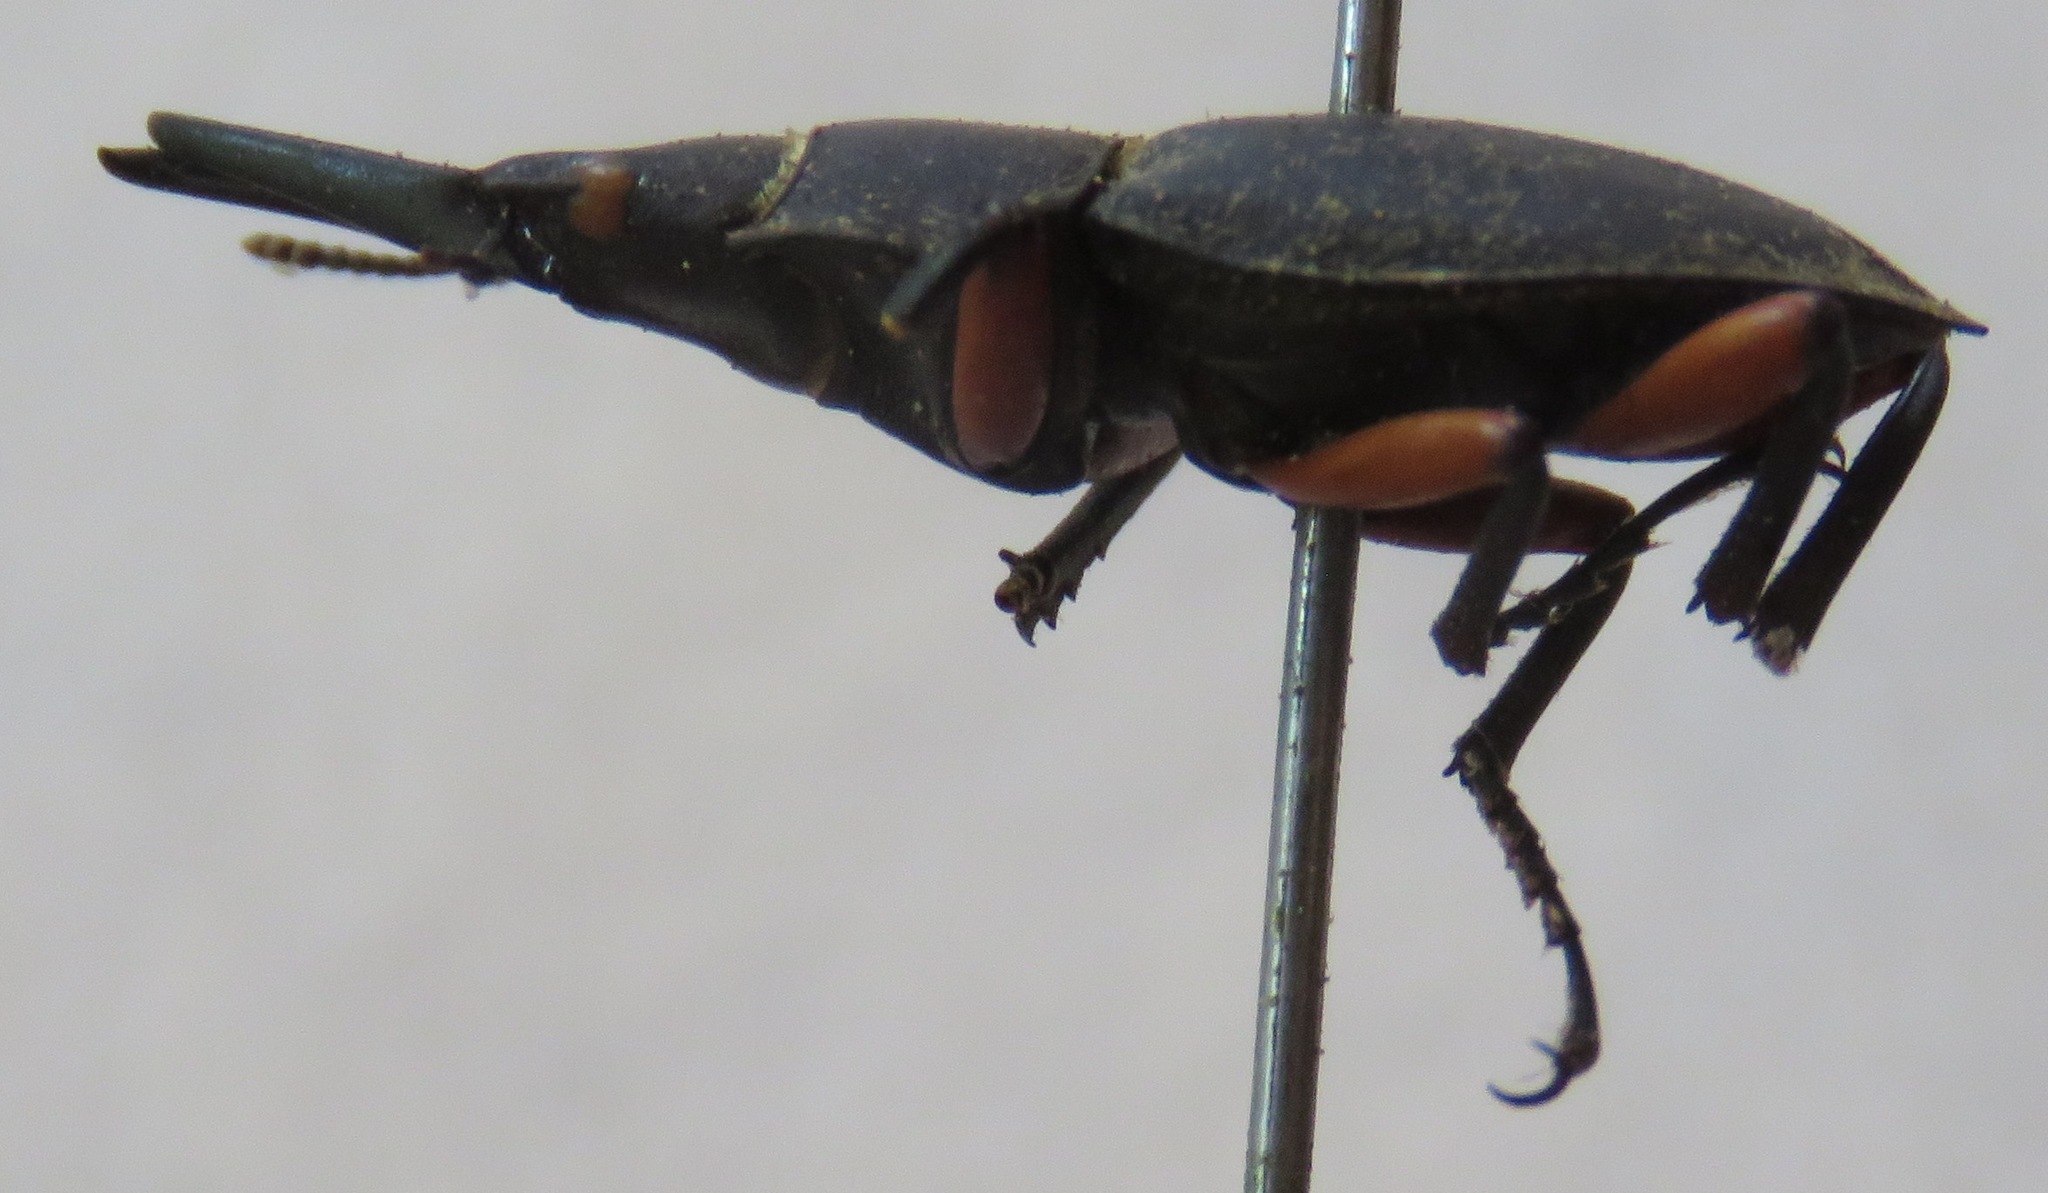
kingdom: Animalia
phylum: Arthropoda
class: Insecta
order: Coleoptera
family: Lucanidae
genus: Leptinopterus
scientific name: Leptinopterus femoratus
